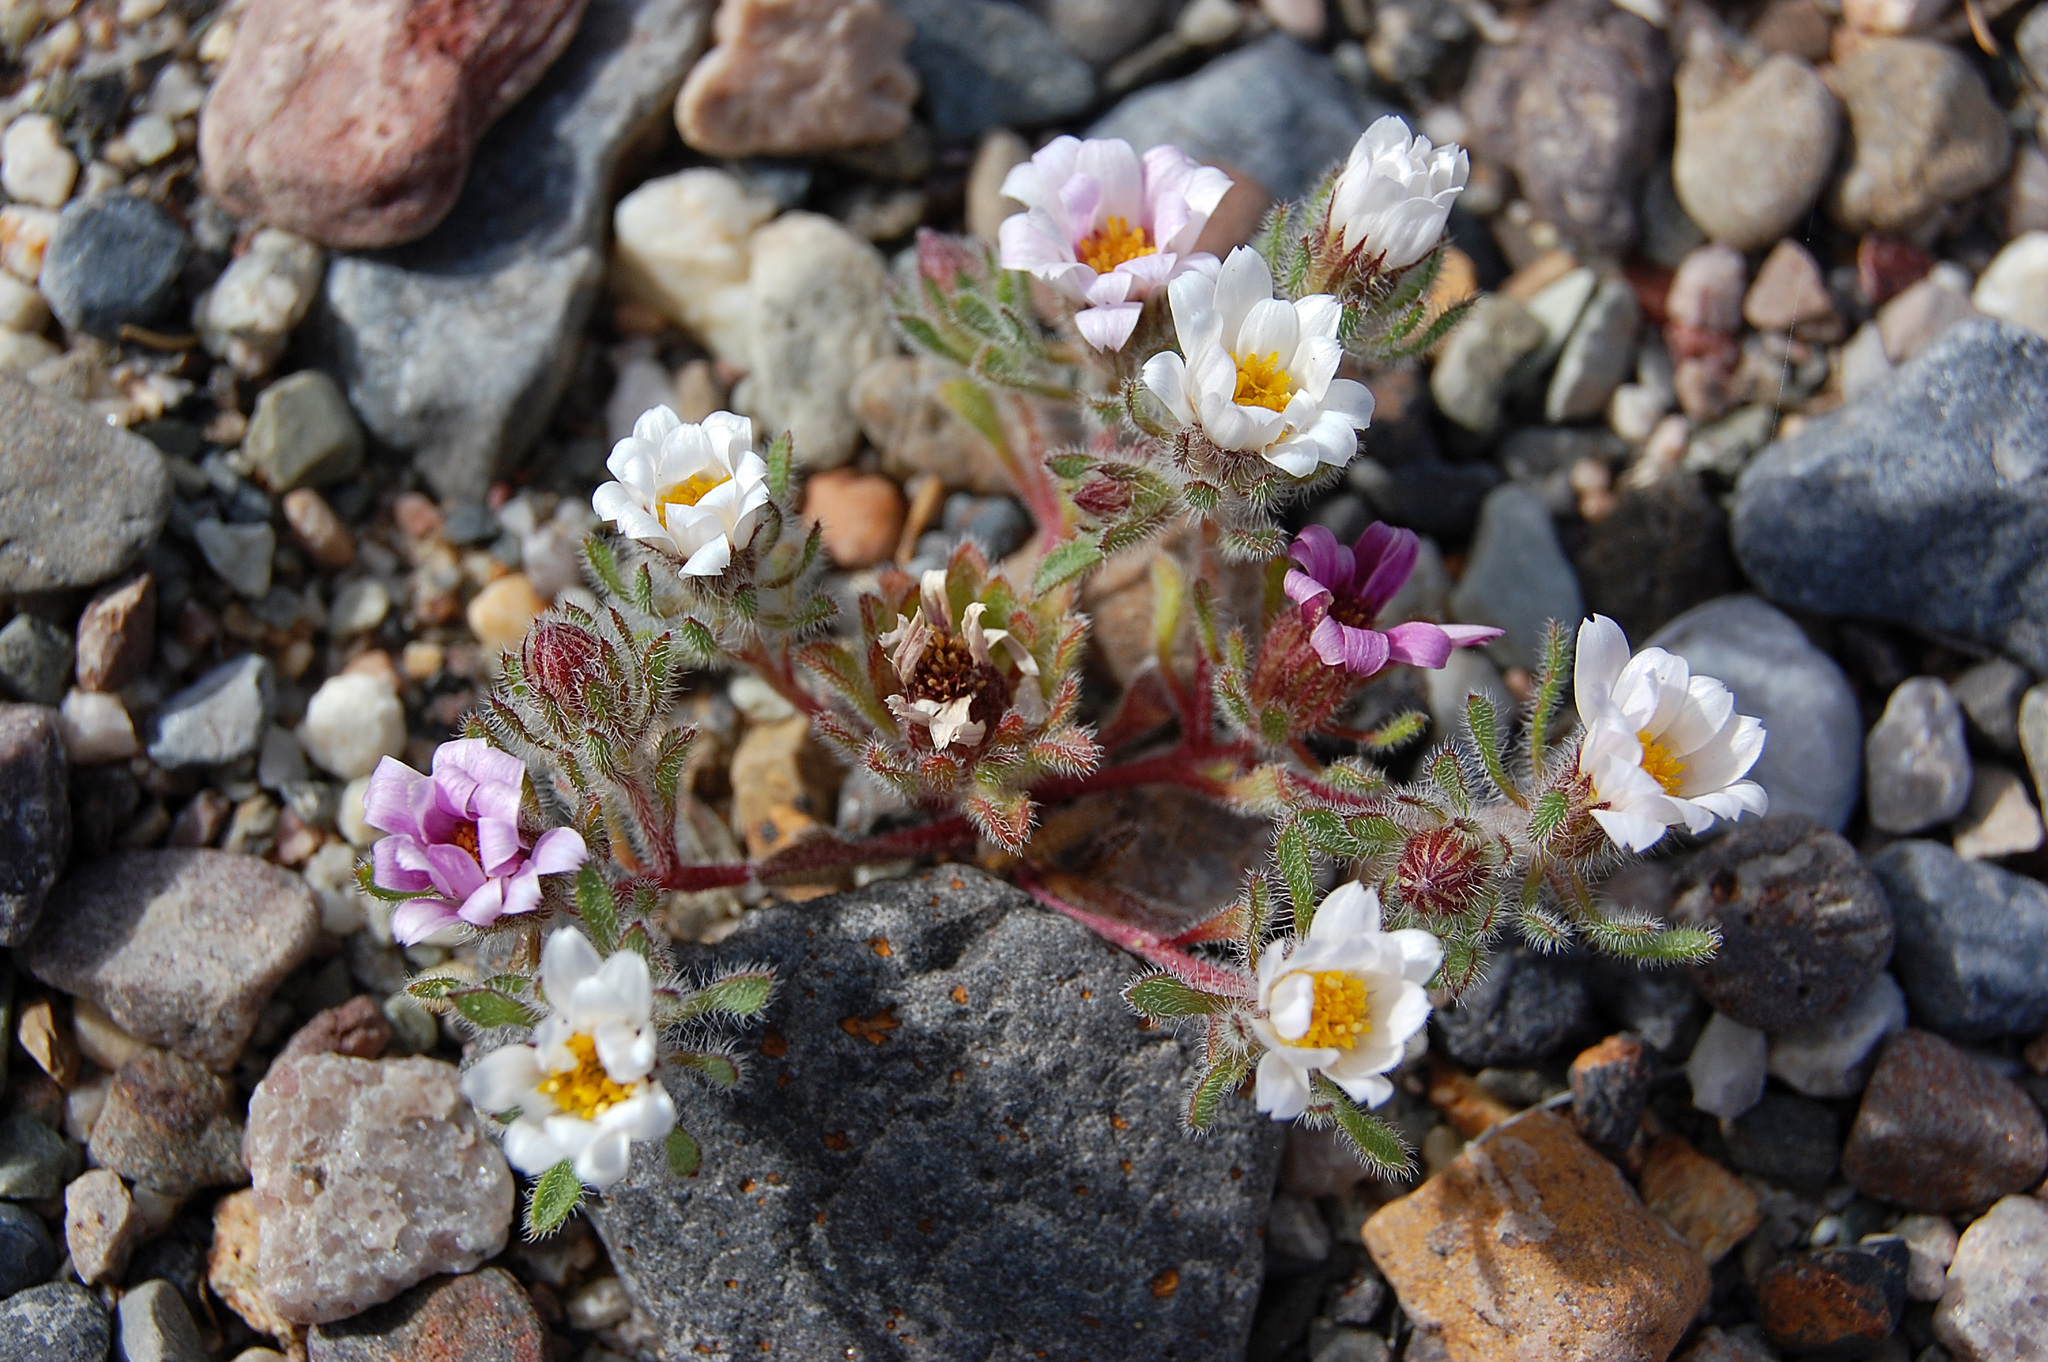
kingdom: Plantae
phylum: Tracheophyta
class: Magnoliopsida
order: Asterales
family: Asteraceae
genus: Monoptilon
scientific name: Monoptilon bellidiforme
